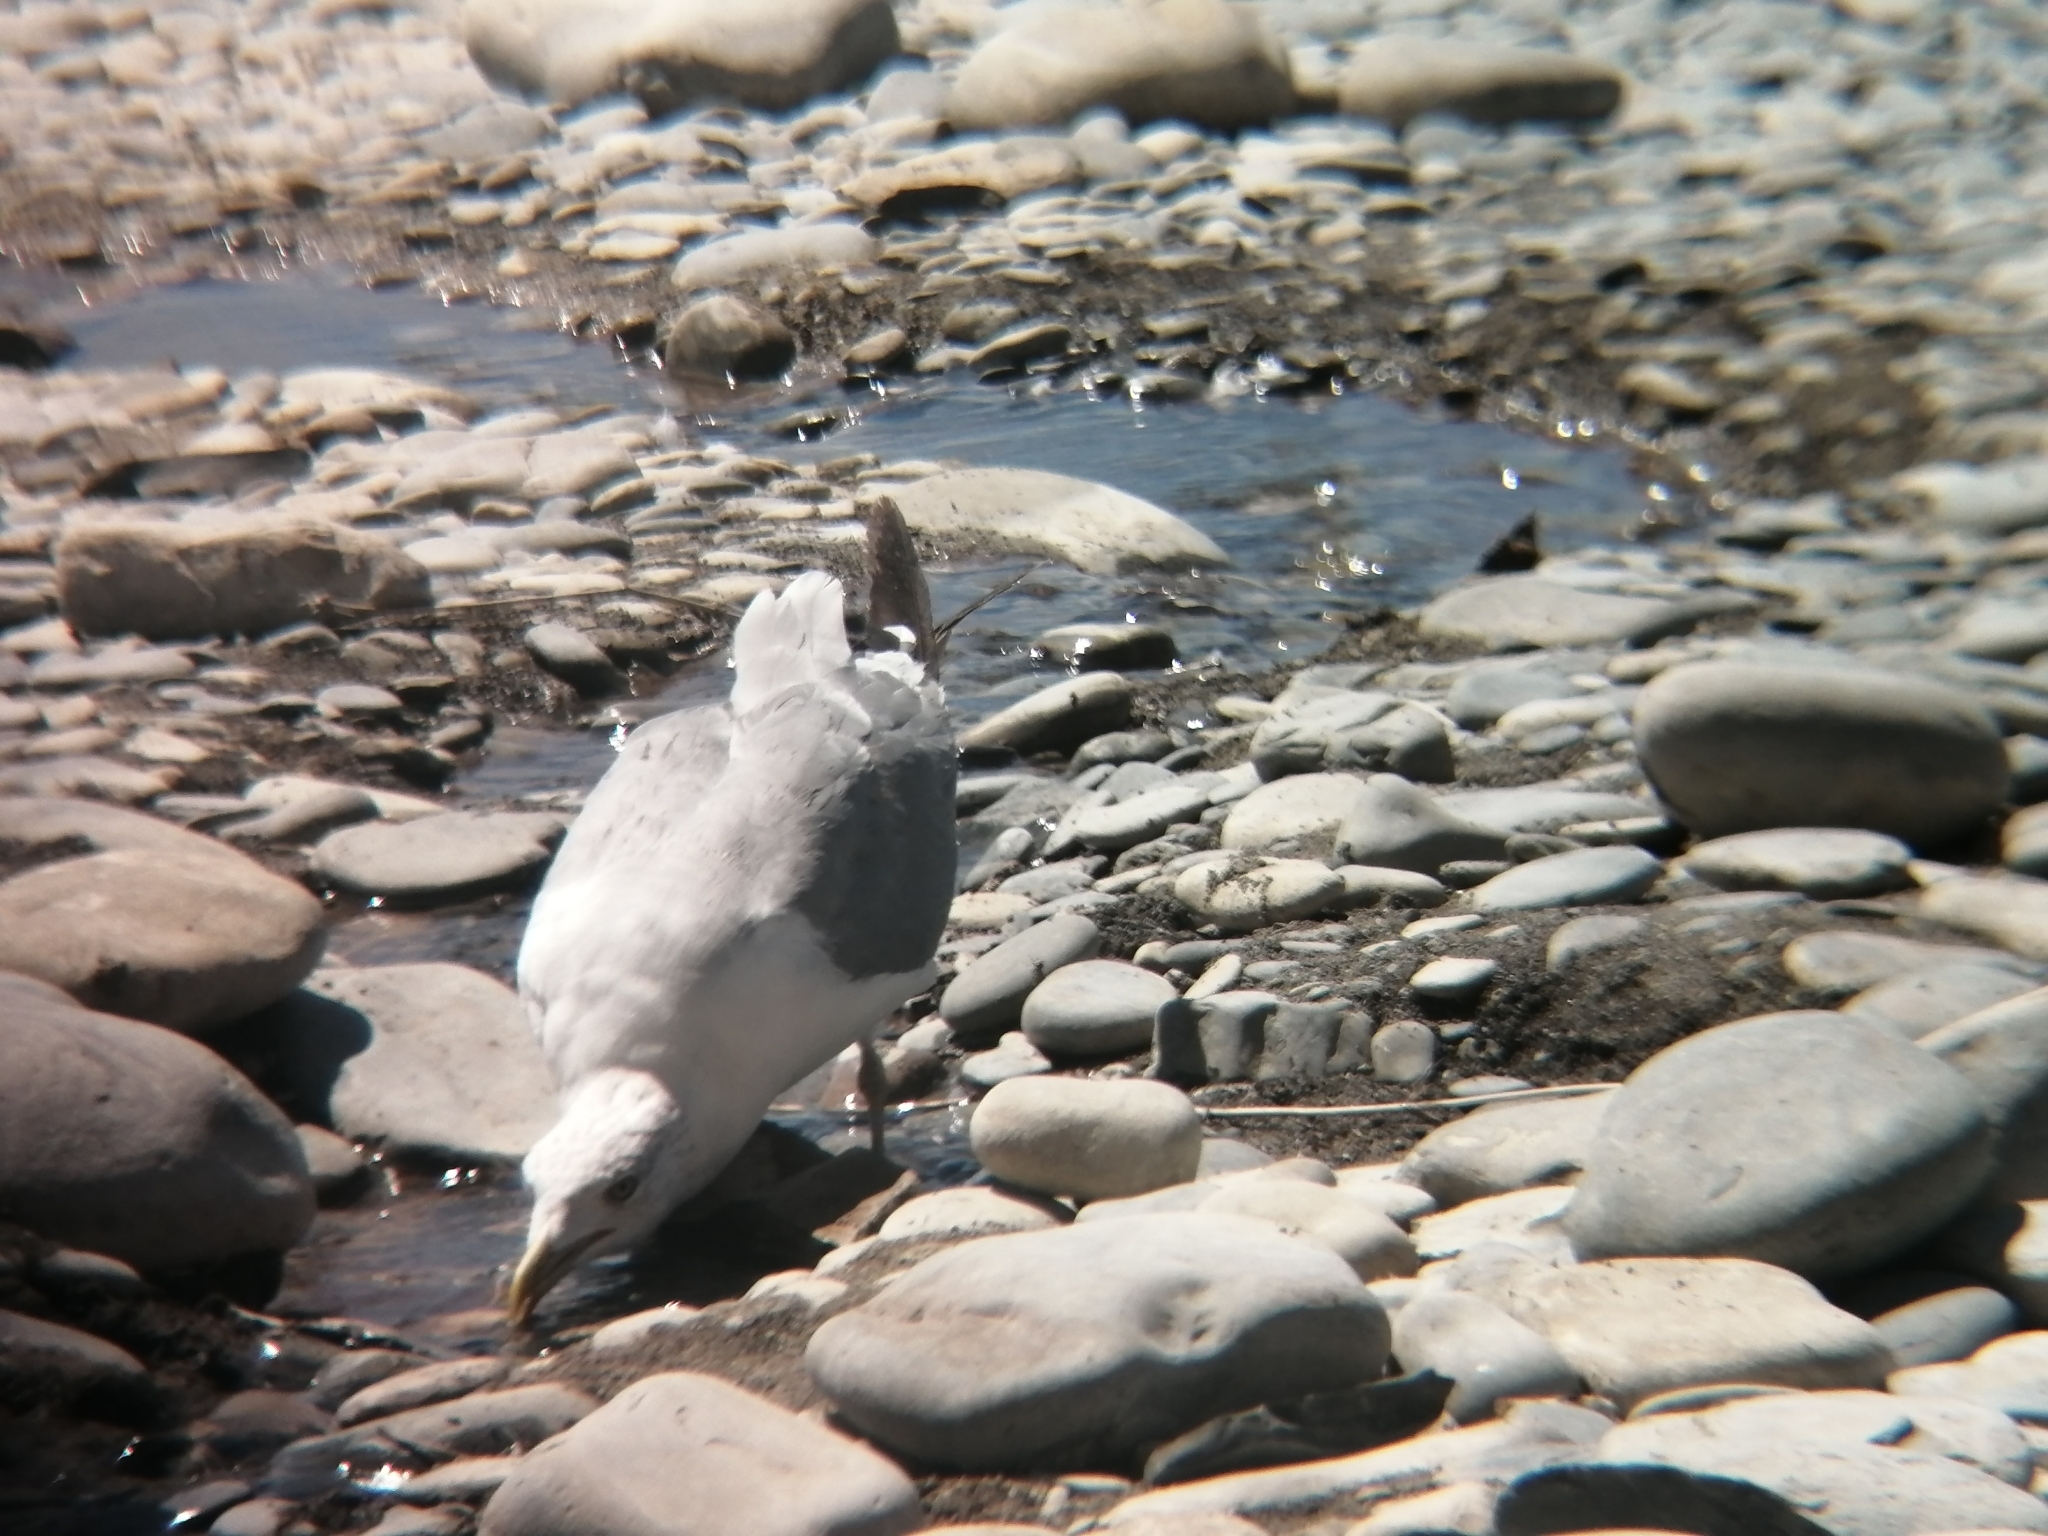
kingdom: Animalia
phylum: Chordata
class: Aves
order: Charadriiformes
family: Laridae
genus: Larus
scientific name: Larus michahellis
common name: Yellow-legged gull
